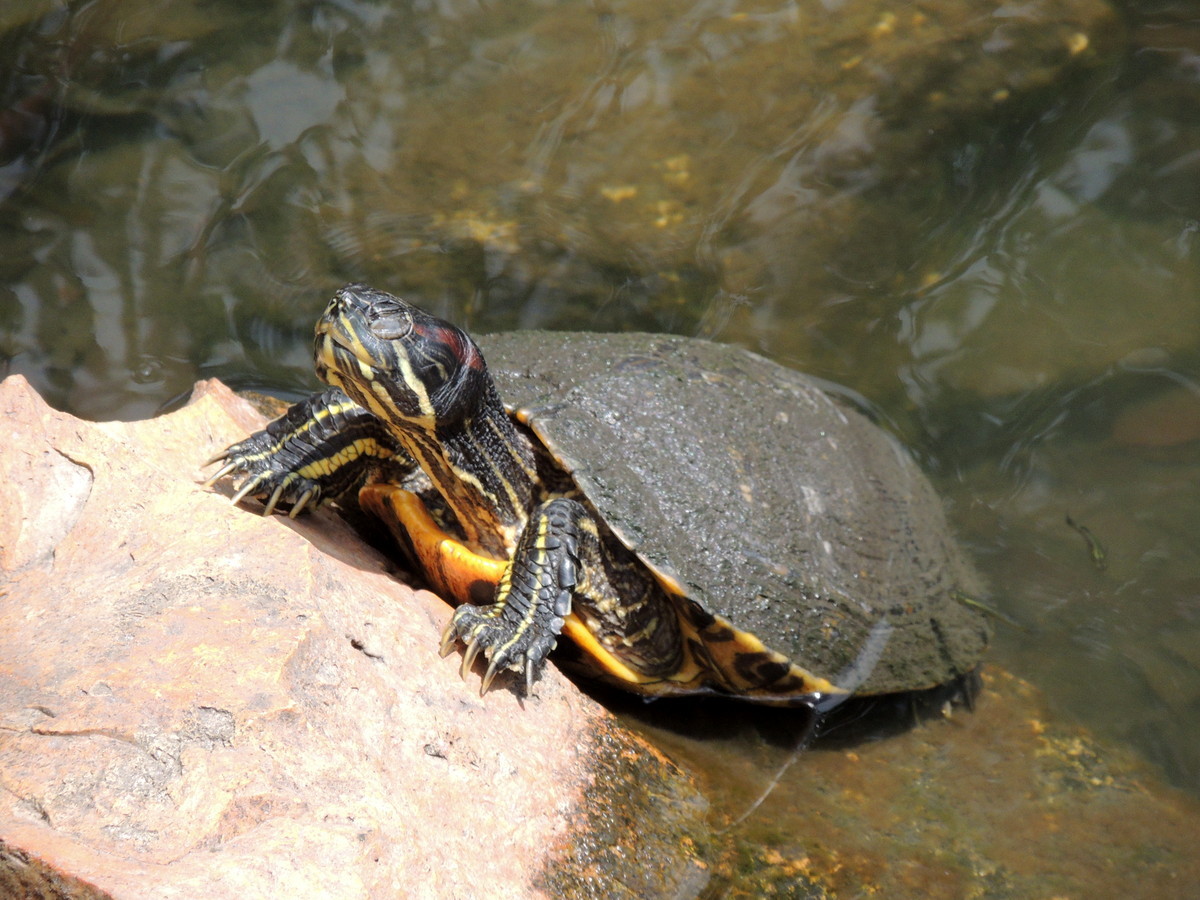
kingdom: Animalia
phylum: Chordata
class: Testudines
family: Emydidae
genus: Trachemys
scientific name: Trachemys scripta
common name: Slider
